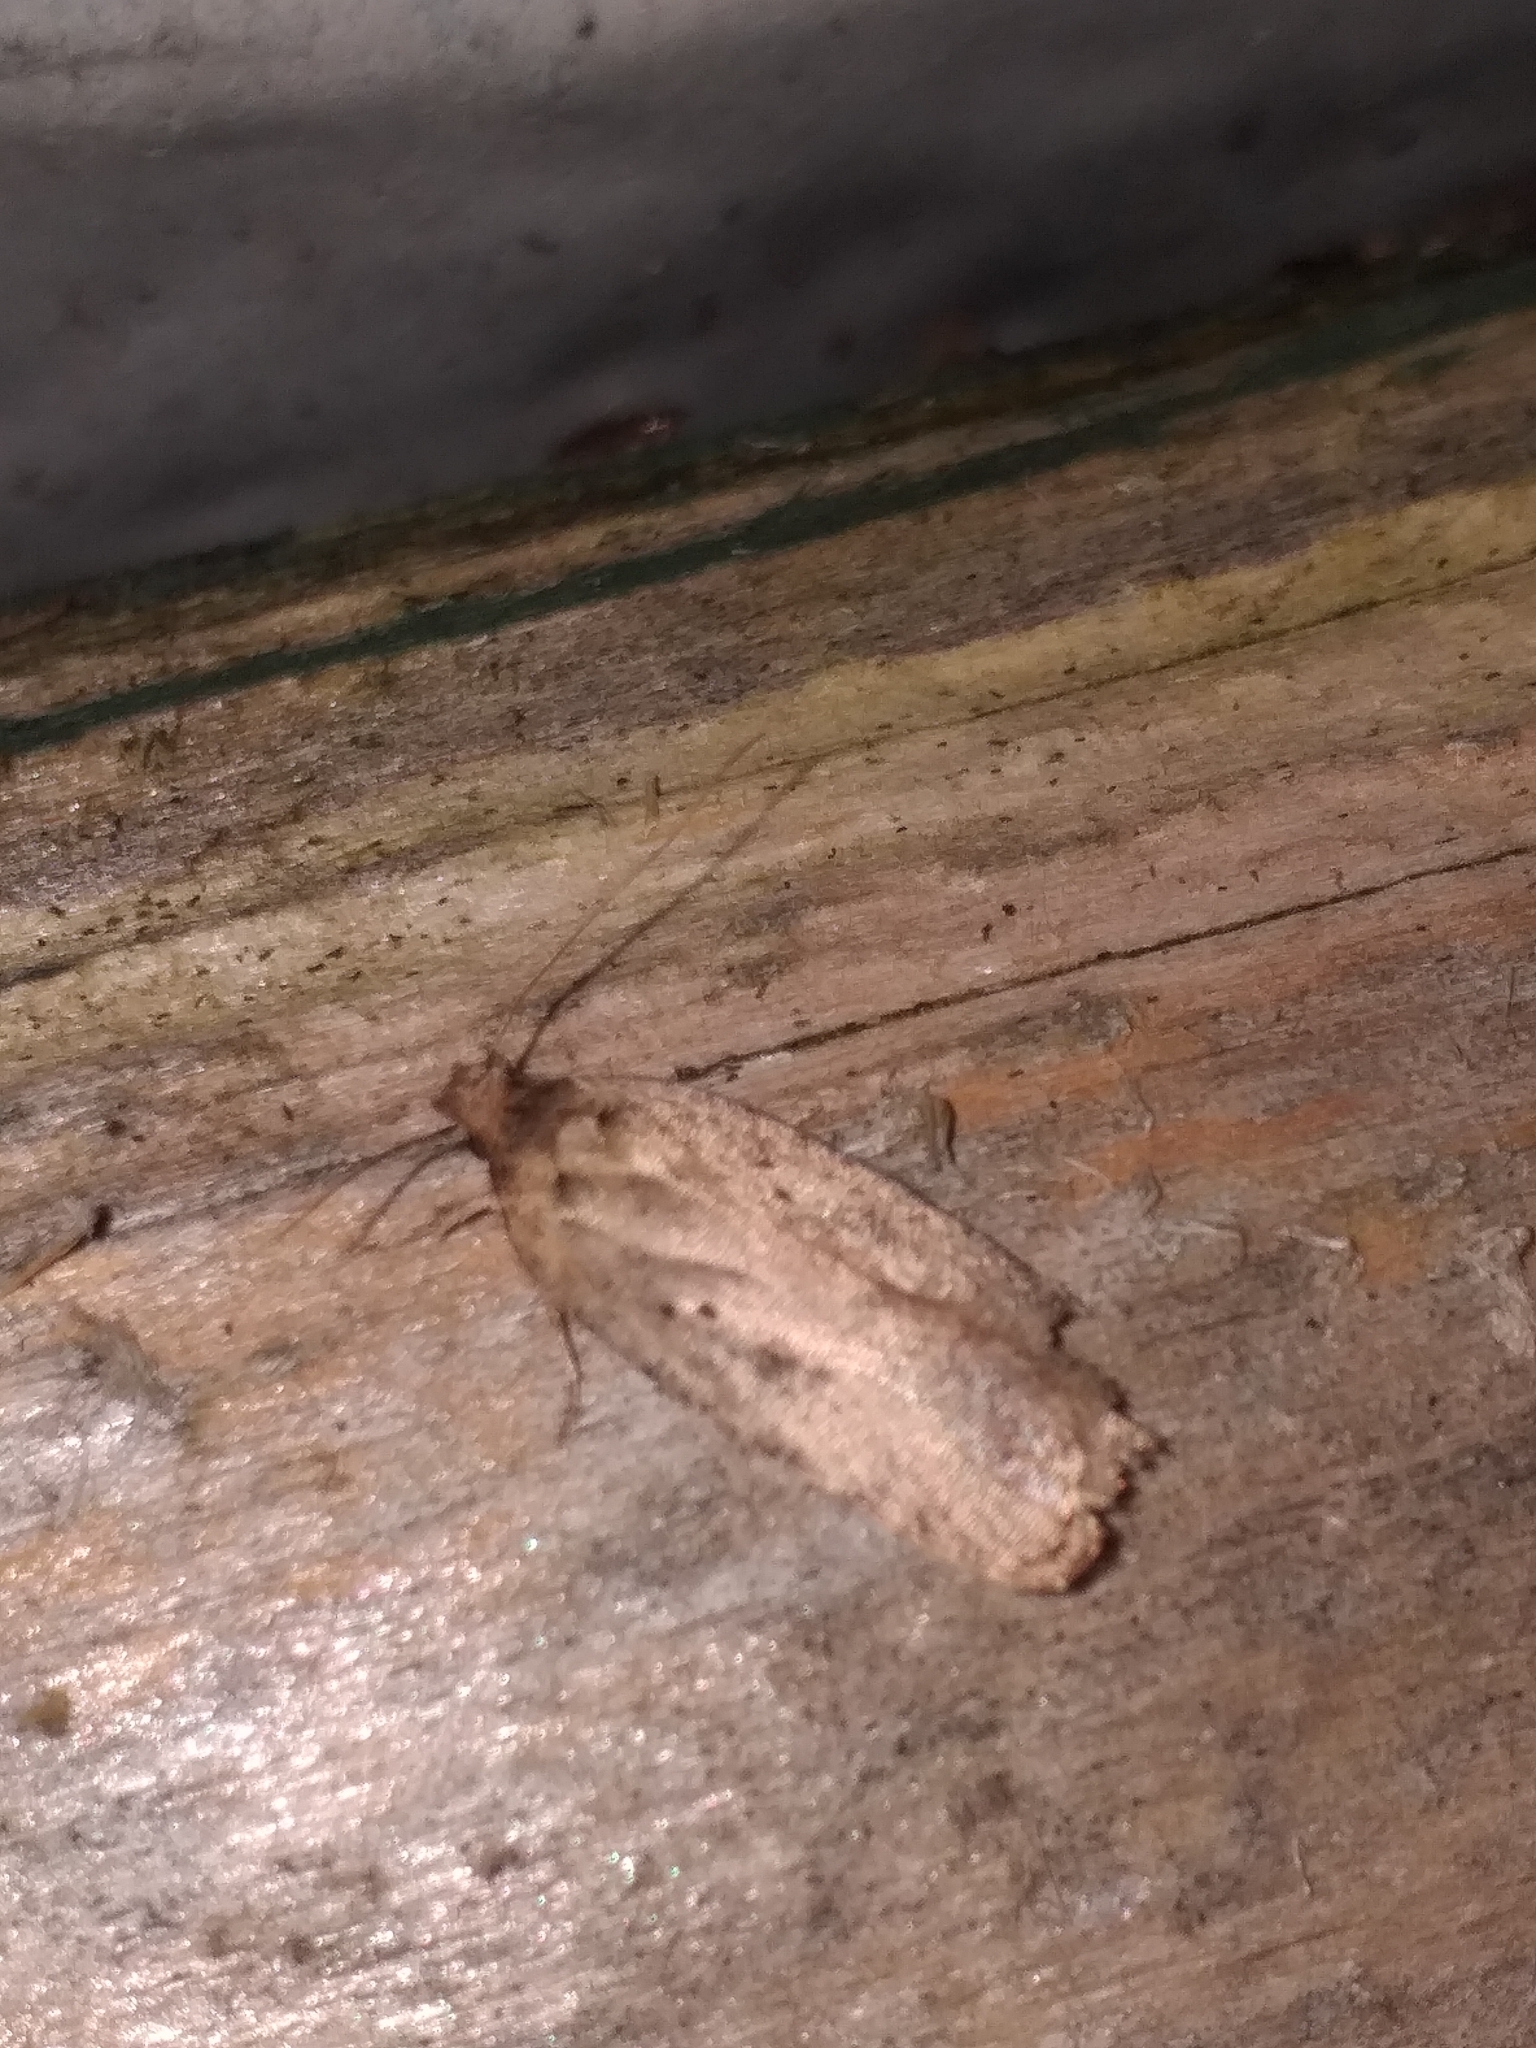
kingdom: Animalia
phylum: Arthropoda
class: Insecta
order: Lepidoptera
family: Depressariidae
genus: Agonopterix
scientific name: Agonopterix arenella
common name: Brindled flat-body
